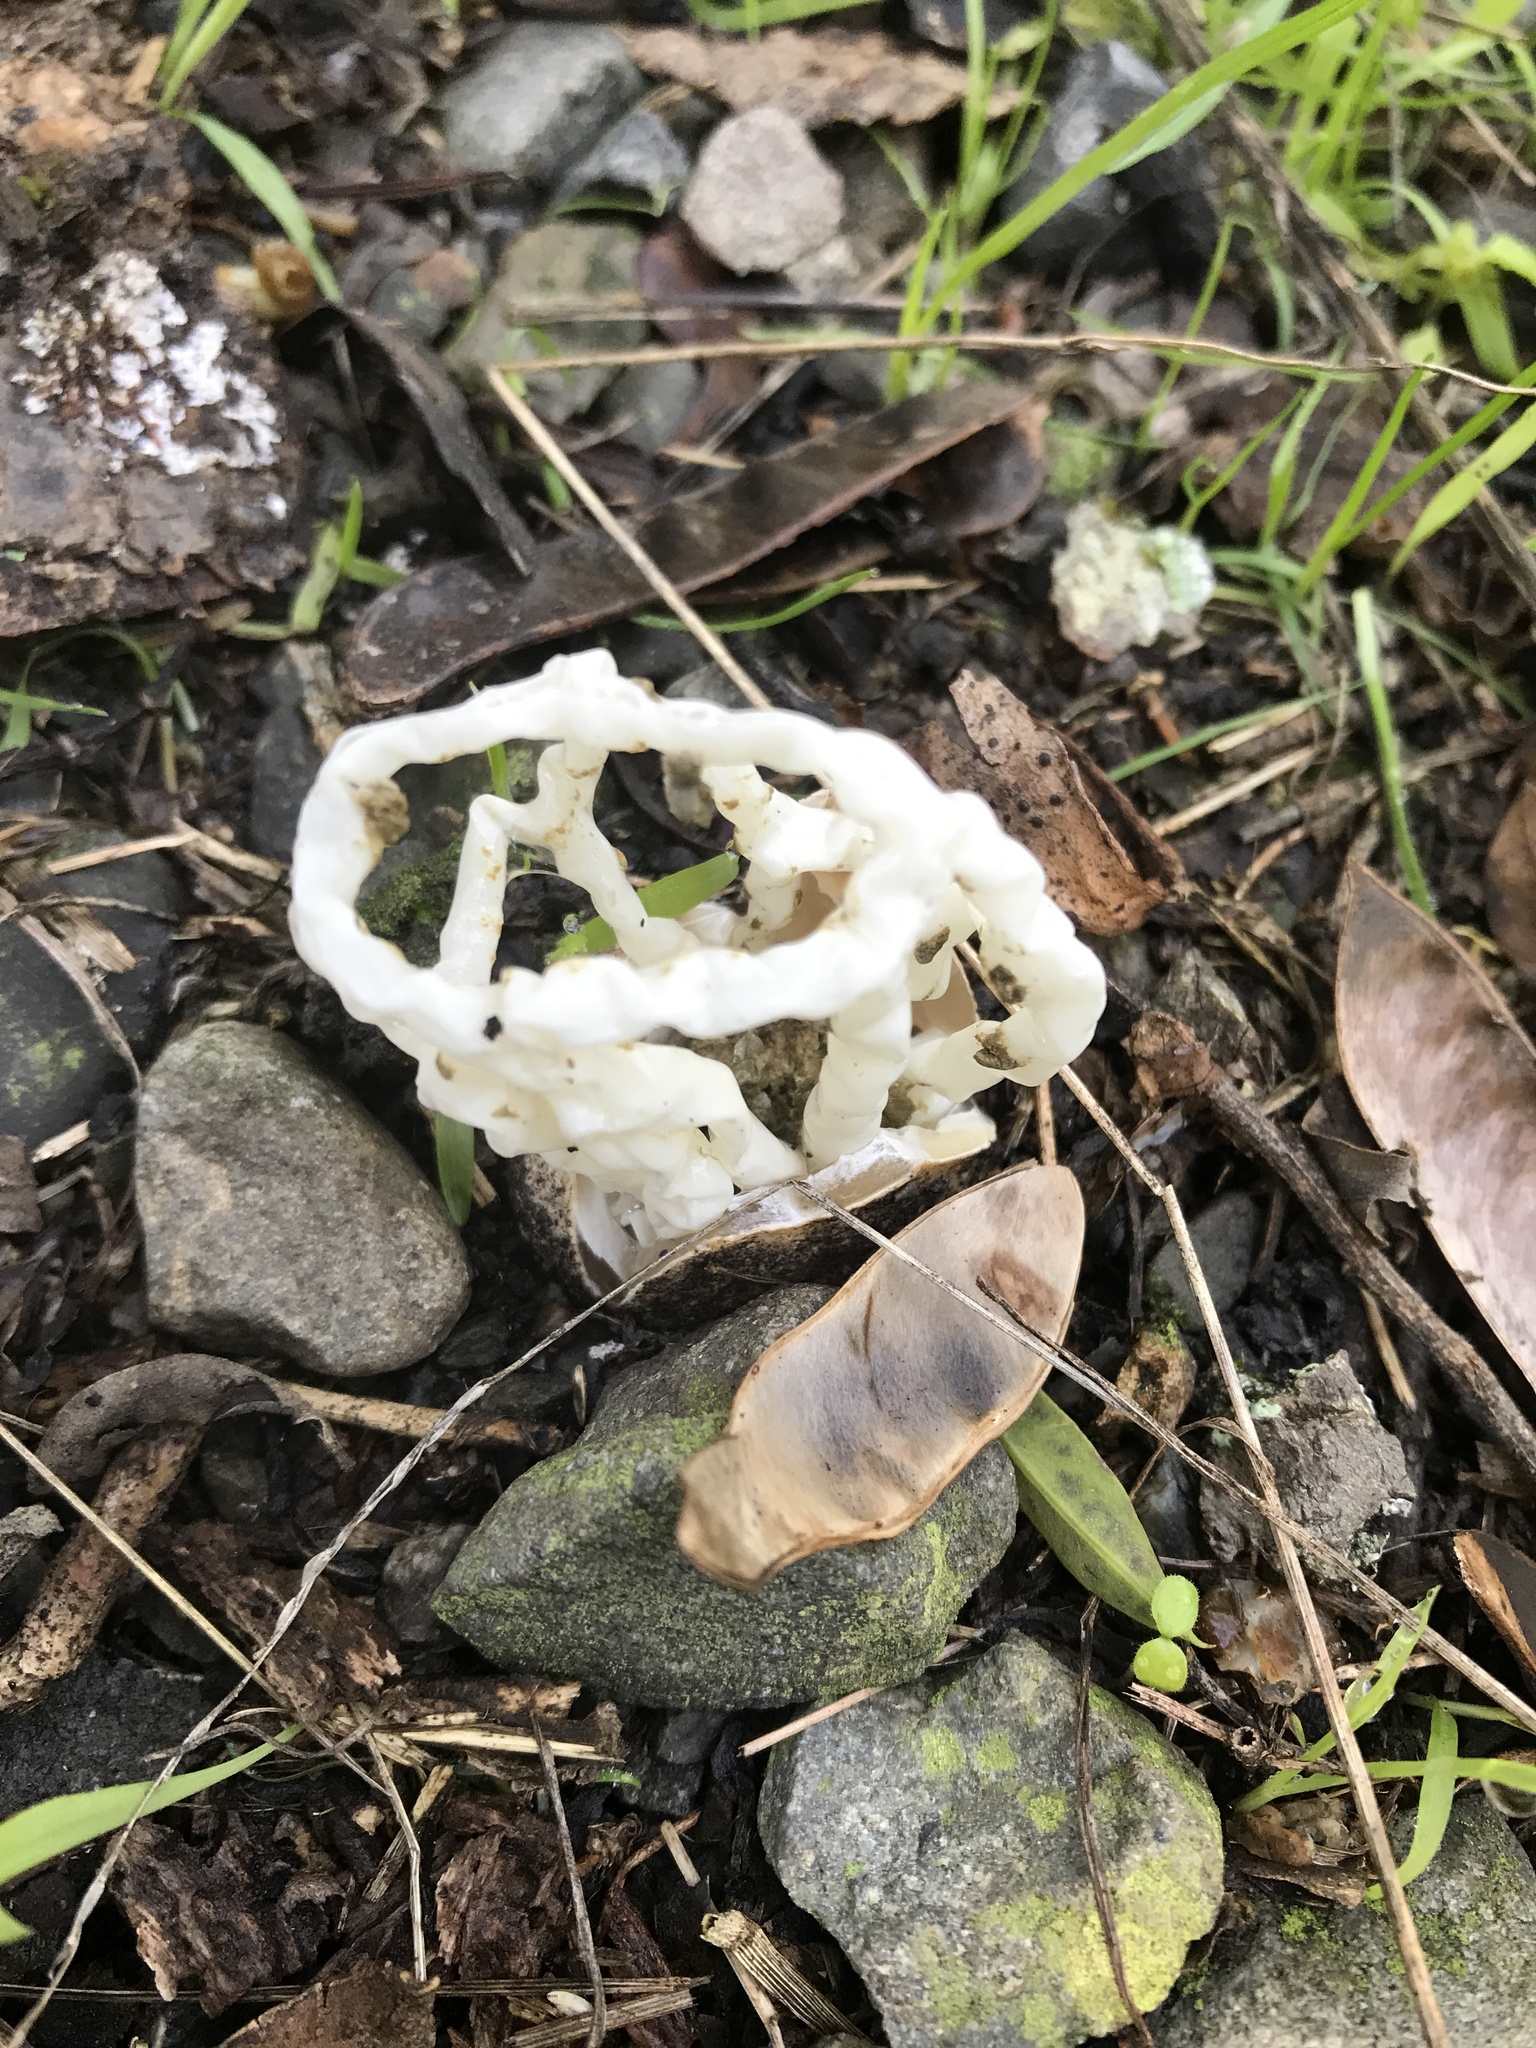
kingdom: Fungi
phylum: Basidiomycota
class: Agaricomycetes
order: Phallales
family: Phallaceae
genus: Ileodictyon
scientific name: Ileodictyon cibarium
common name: Basket fungus
